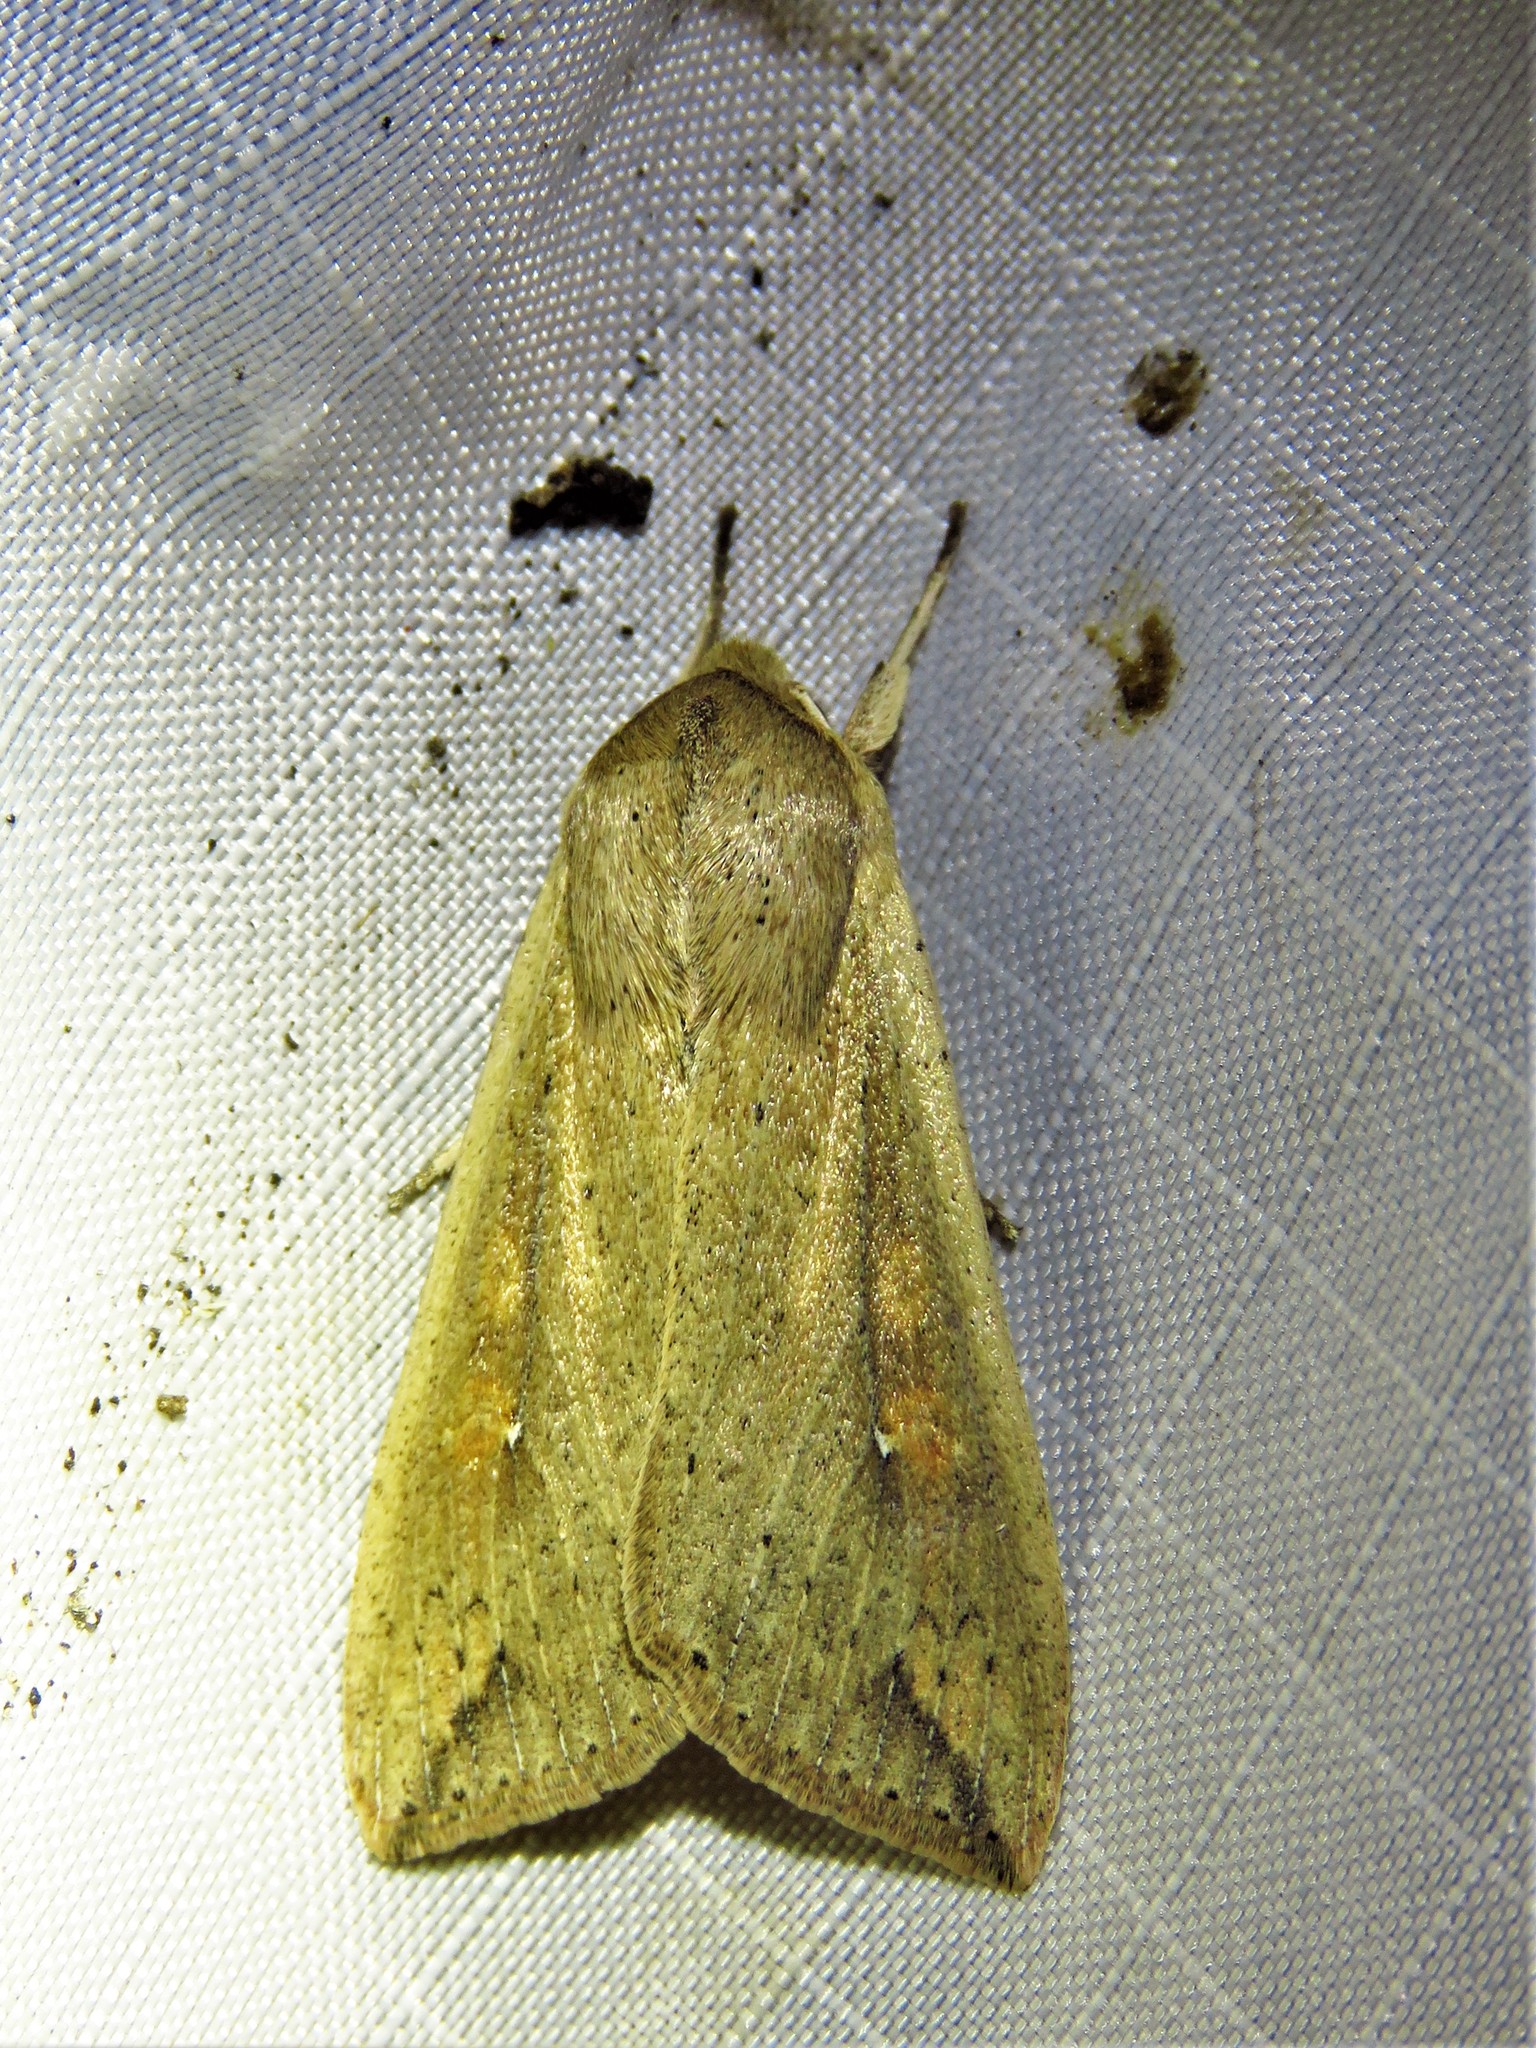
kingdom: Animalia
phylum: Arthropoda
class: Insecta
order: Lepidoptera
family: Noctuidae
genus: Mythimna
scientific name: Mythimna unipuncta
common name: White-speck
